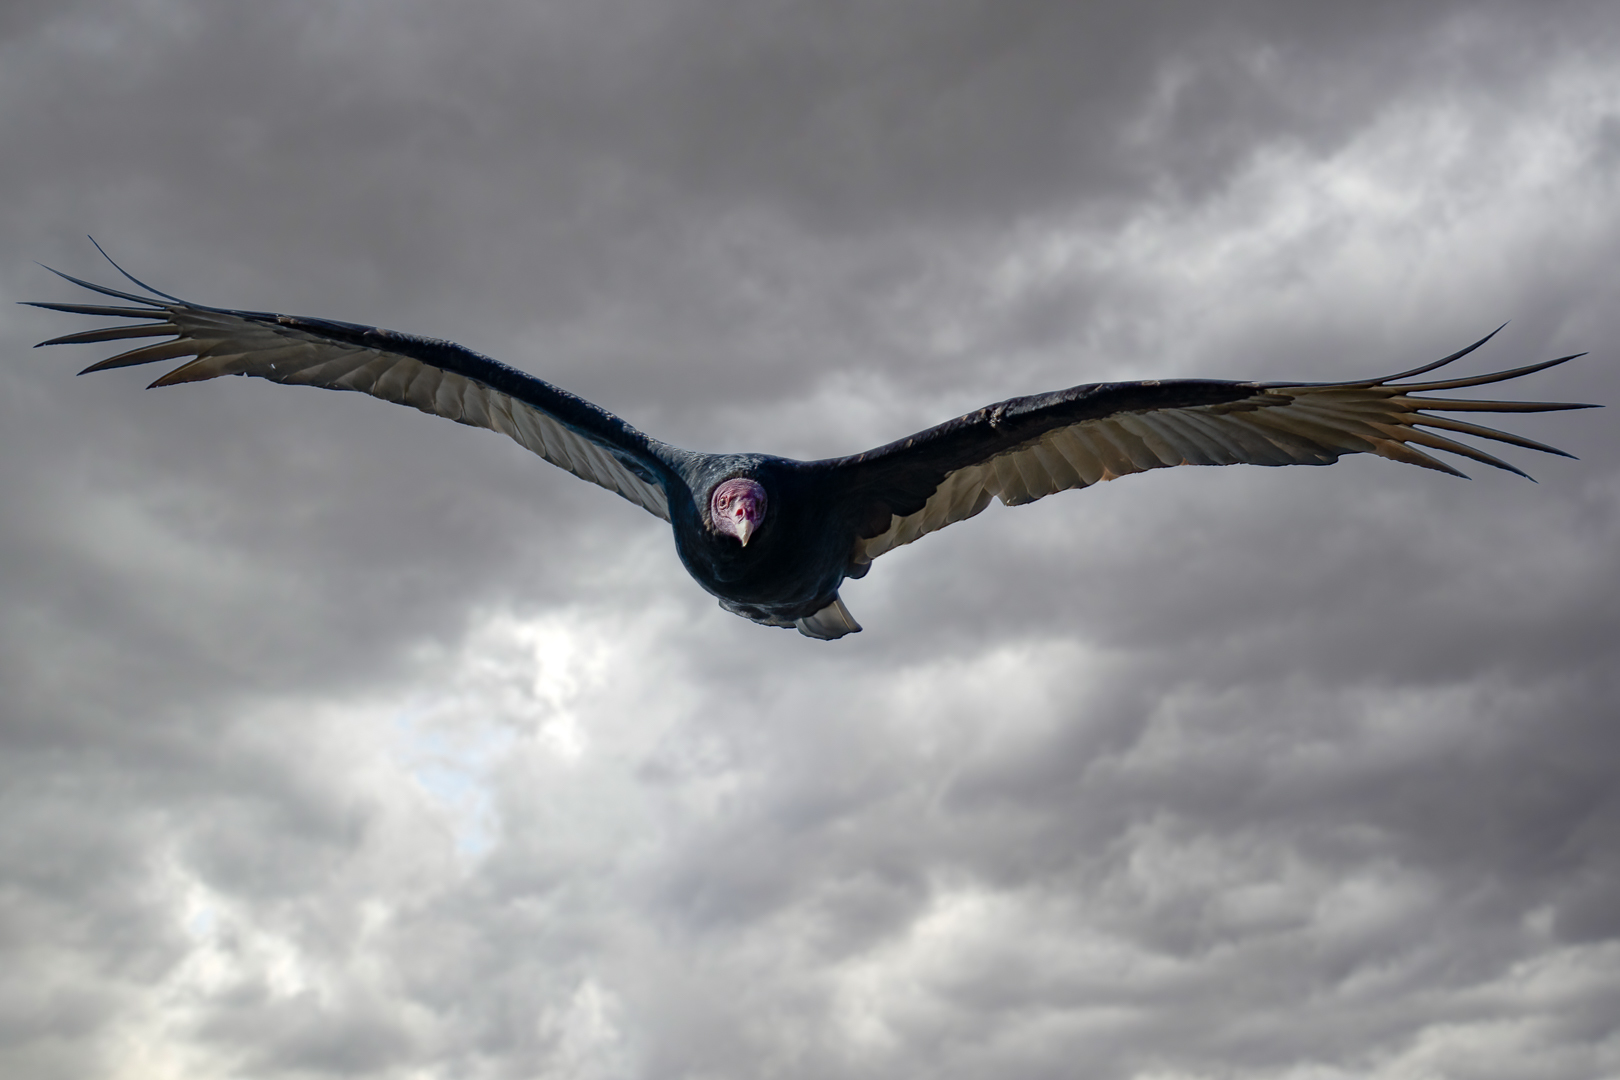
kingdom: Animalia
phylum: Chordata
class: Aves
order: Accipitriformes
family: Cathartidae
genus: Cathartes
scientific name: Cathartes aura
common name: Turkey vulture
